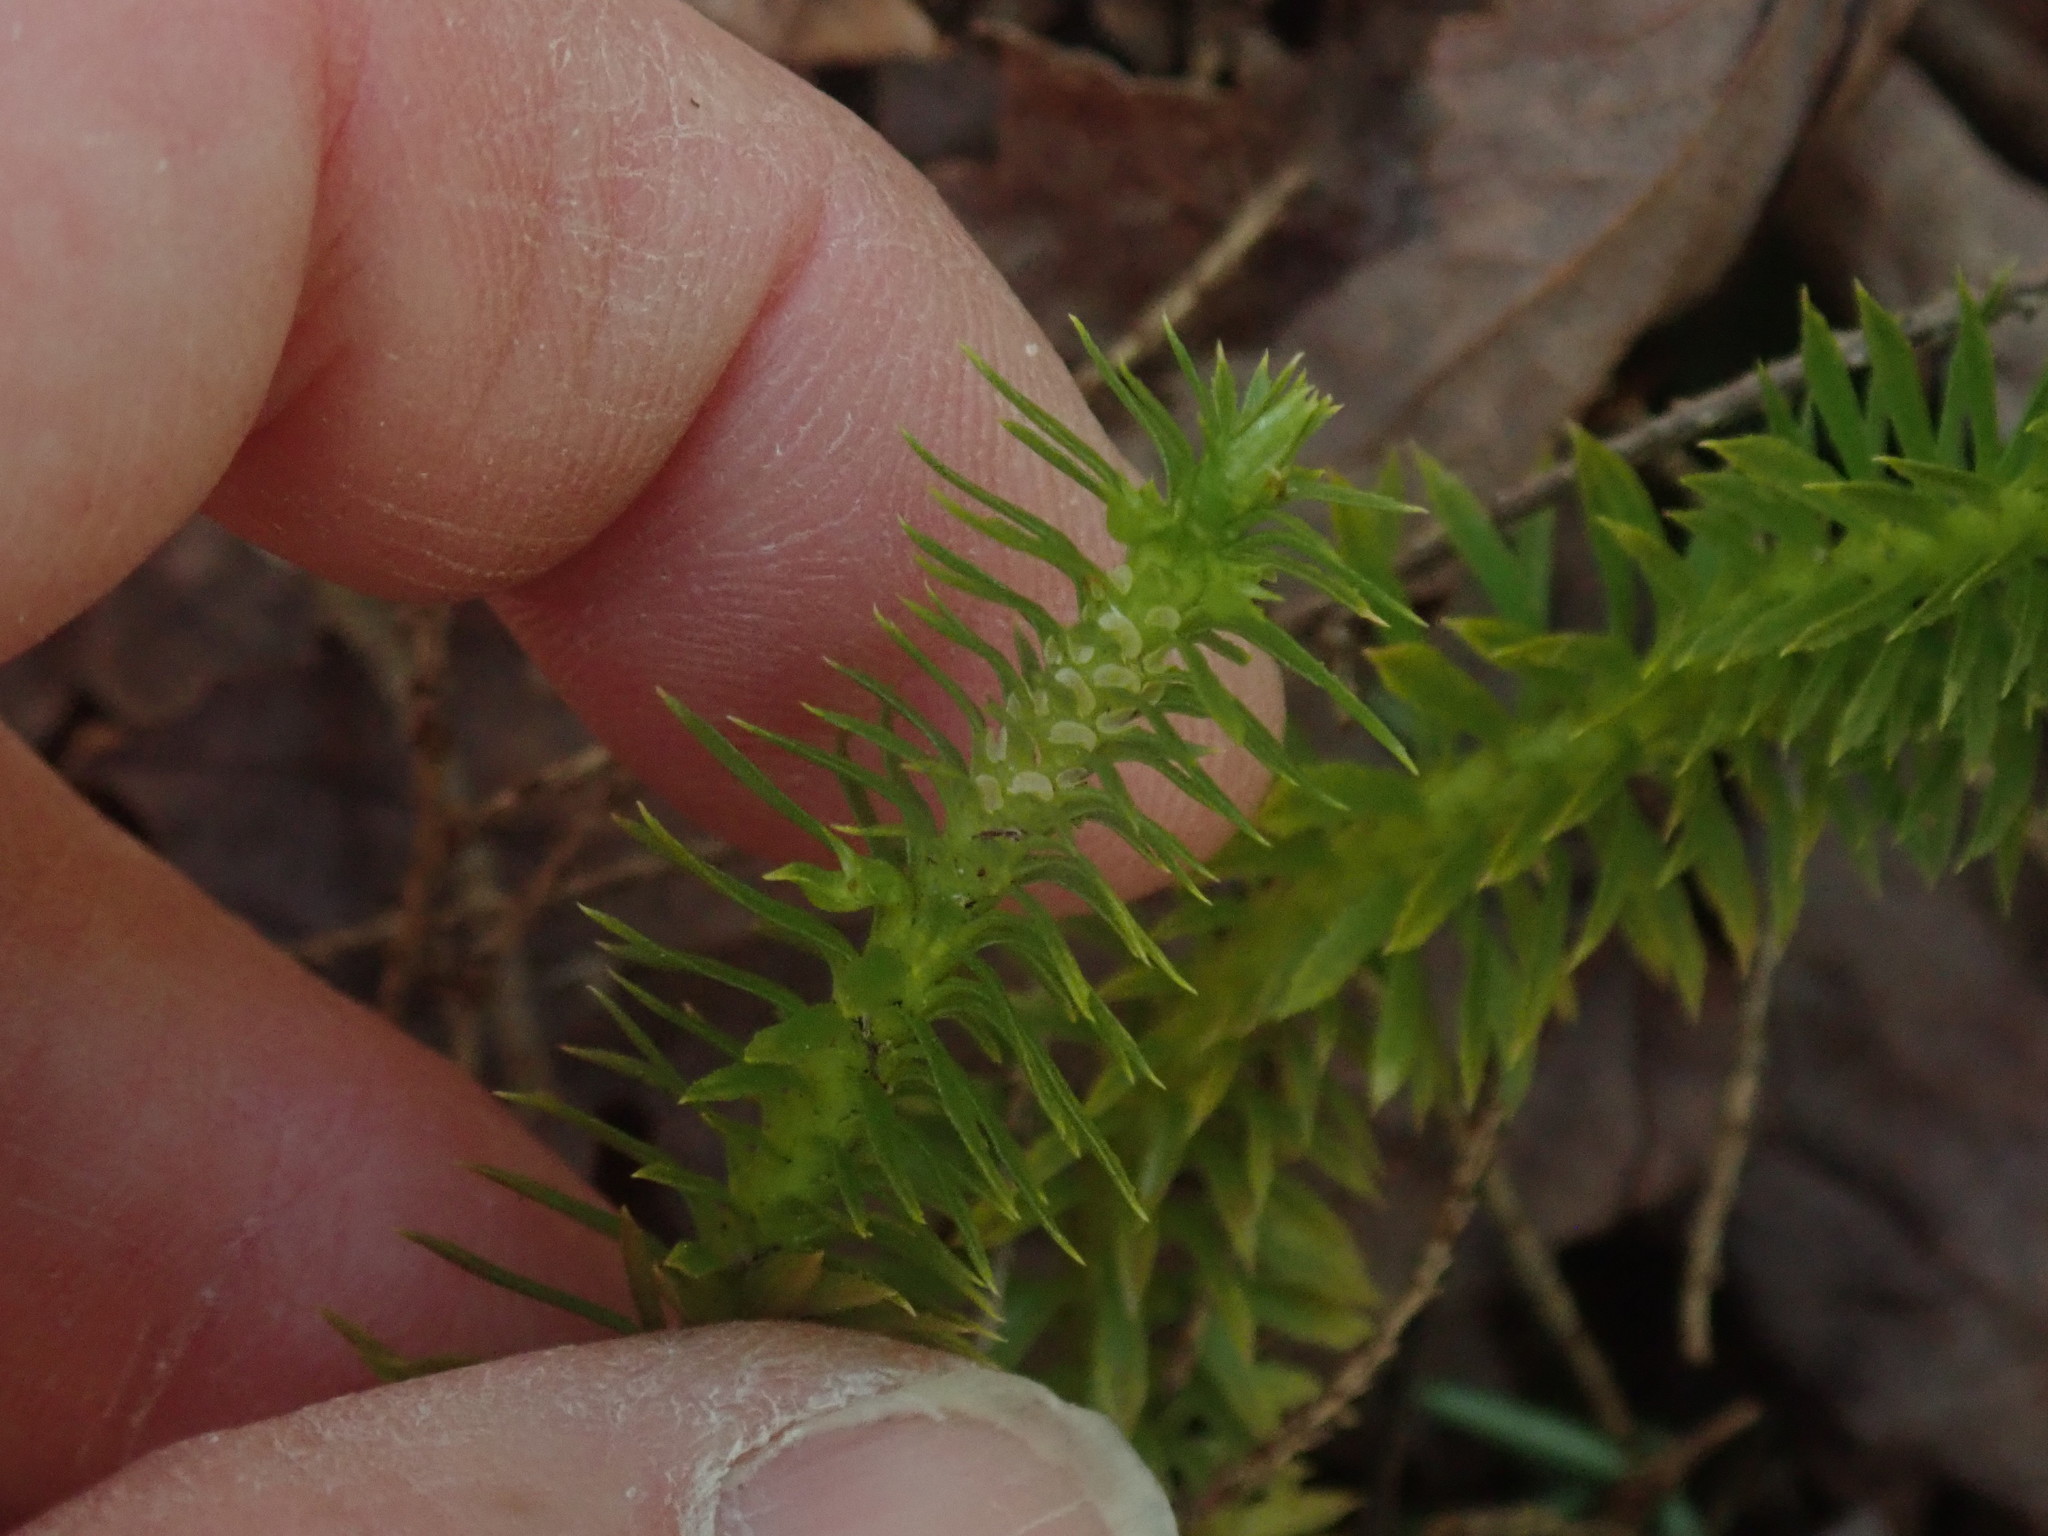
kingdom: Plantae
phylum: Tracheophyta
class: Lycopodiopsida
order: Lycopodiales
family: Lycopodiaceae
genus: Huperzia
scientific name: Huperzia lucidula
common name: Shining clubmoss
